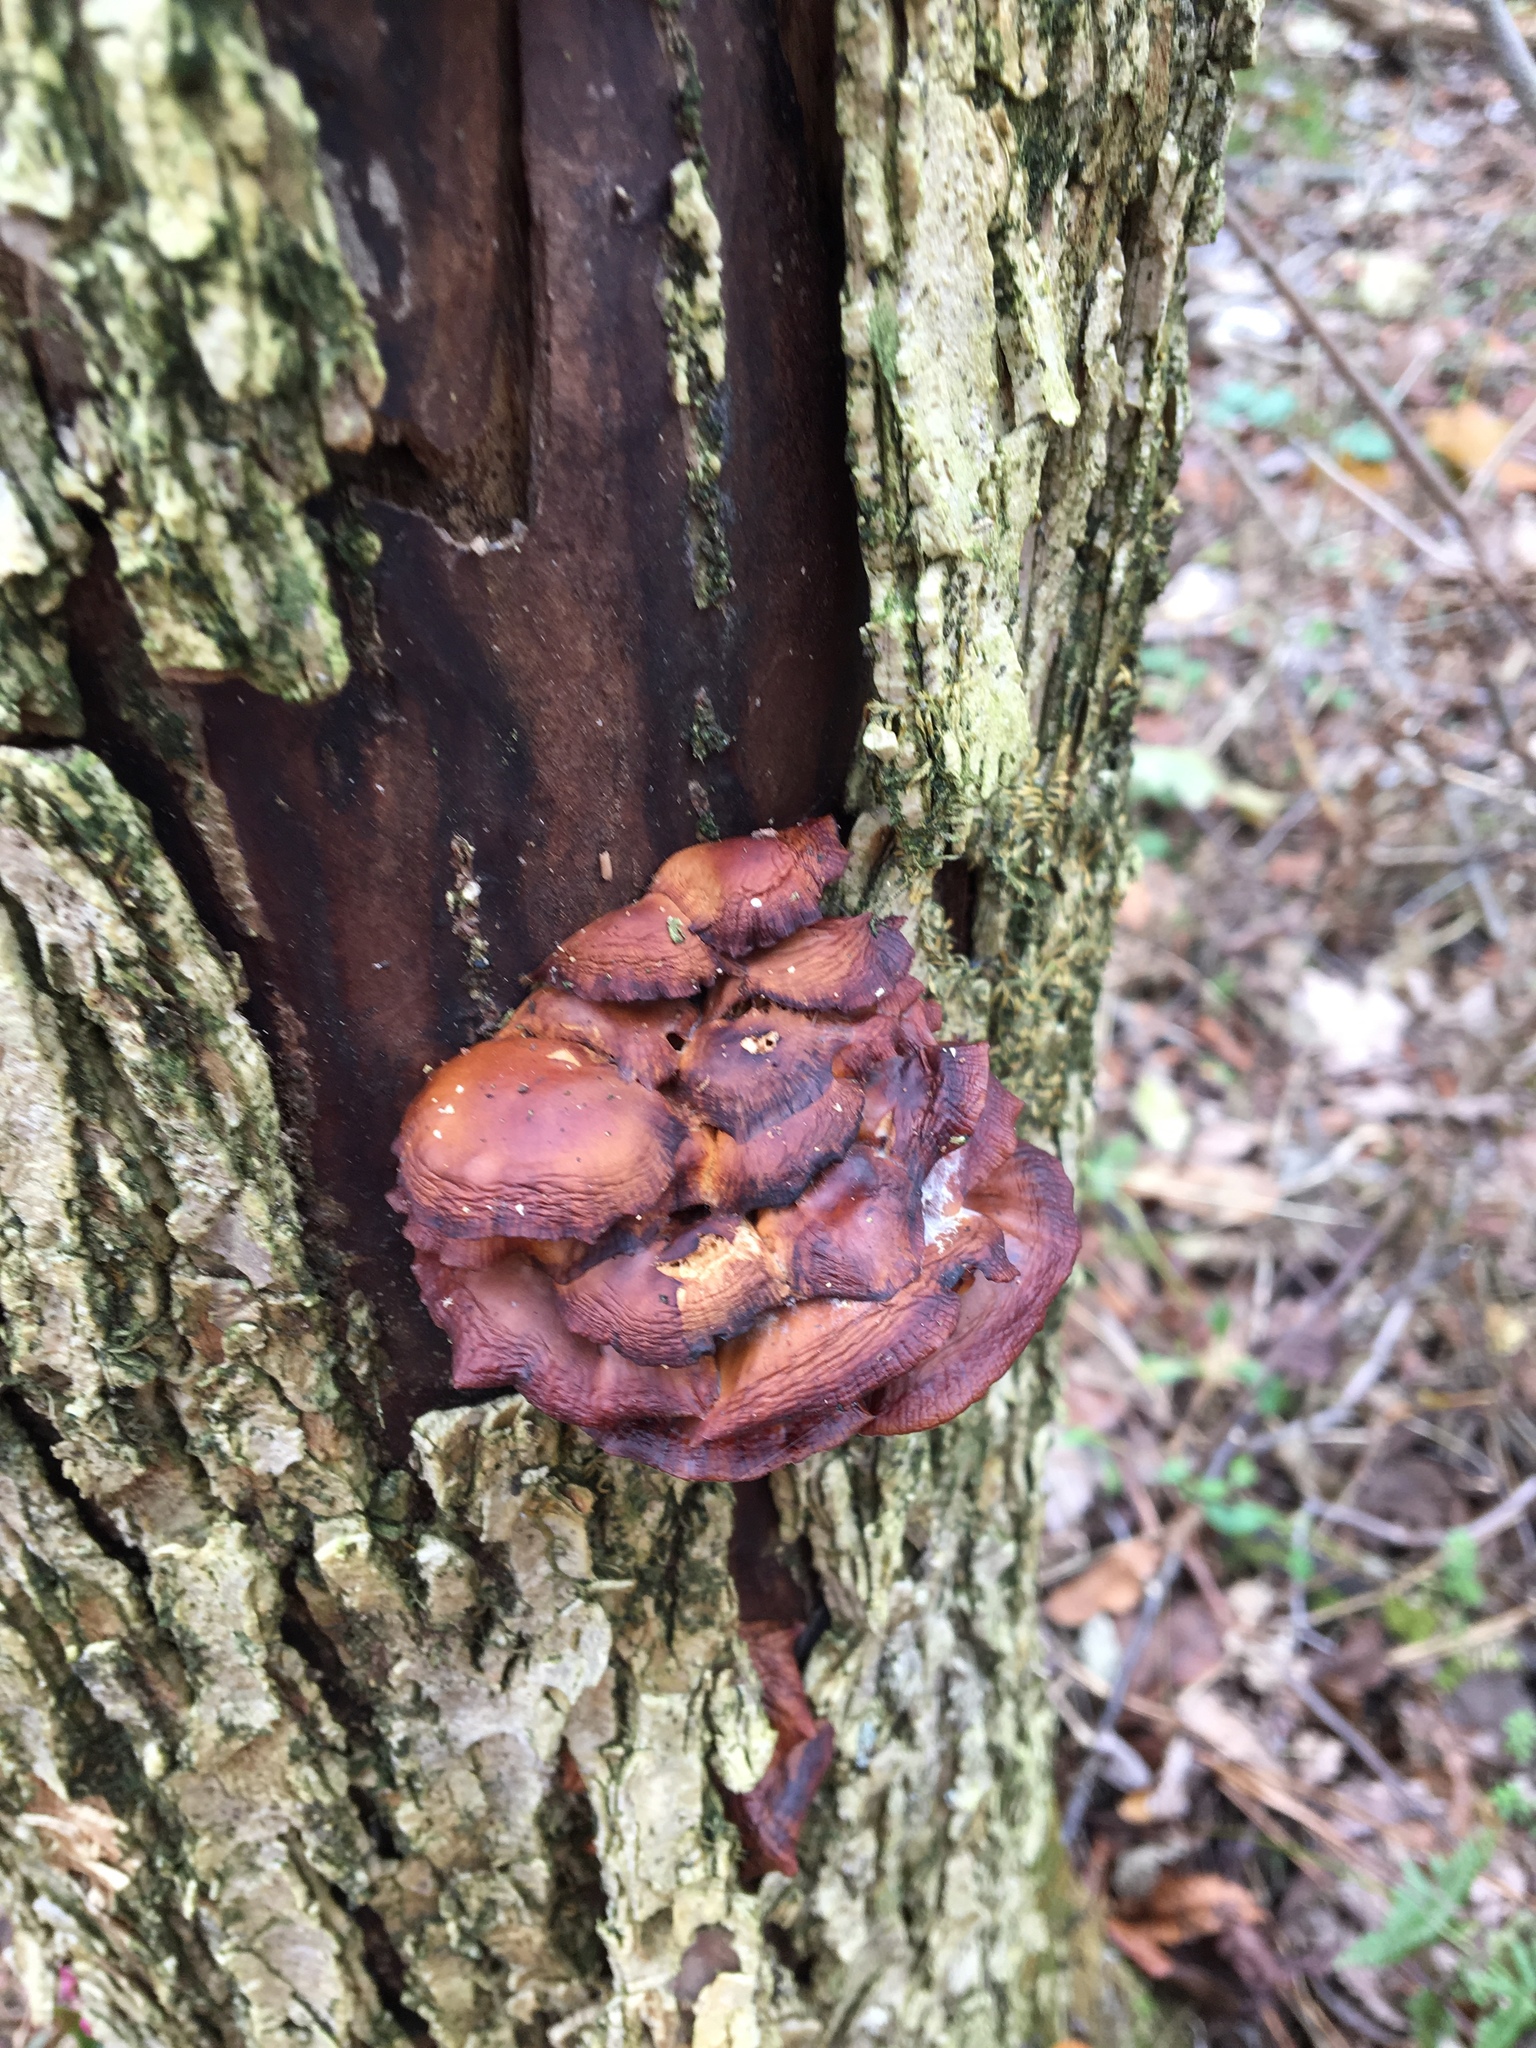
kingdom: Fungi
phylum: Basidiomycota
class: Agaricomycetes
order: Agaricales
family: Physalacriaceae
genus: Flammulina
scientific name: Flammulina velutipes
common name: Velvet shank
